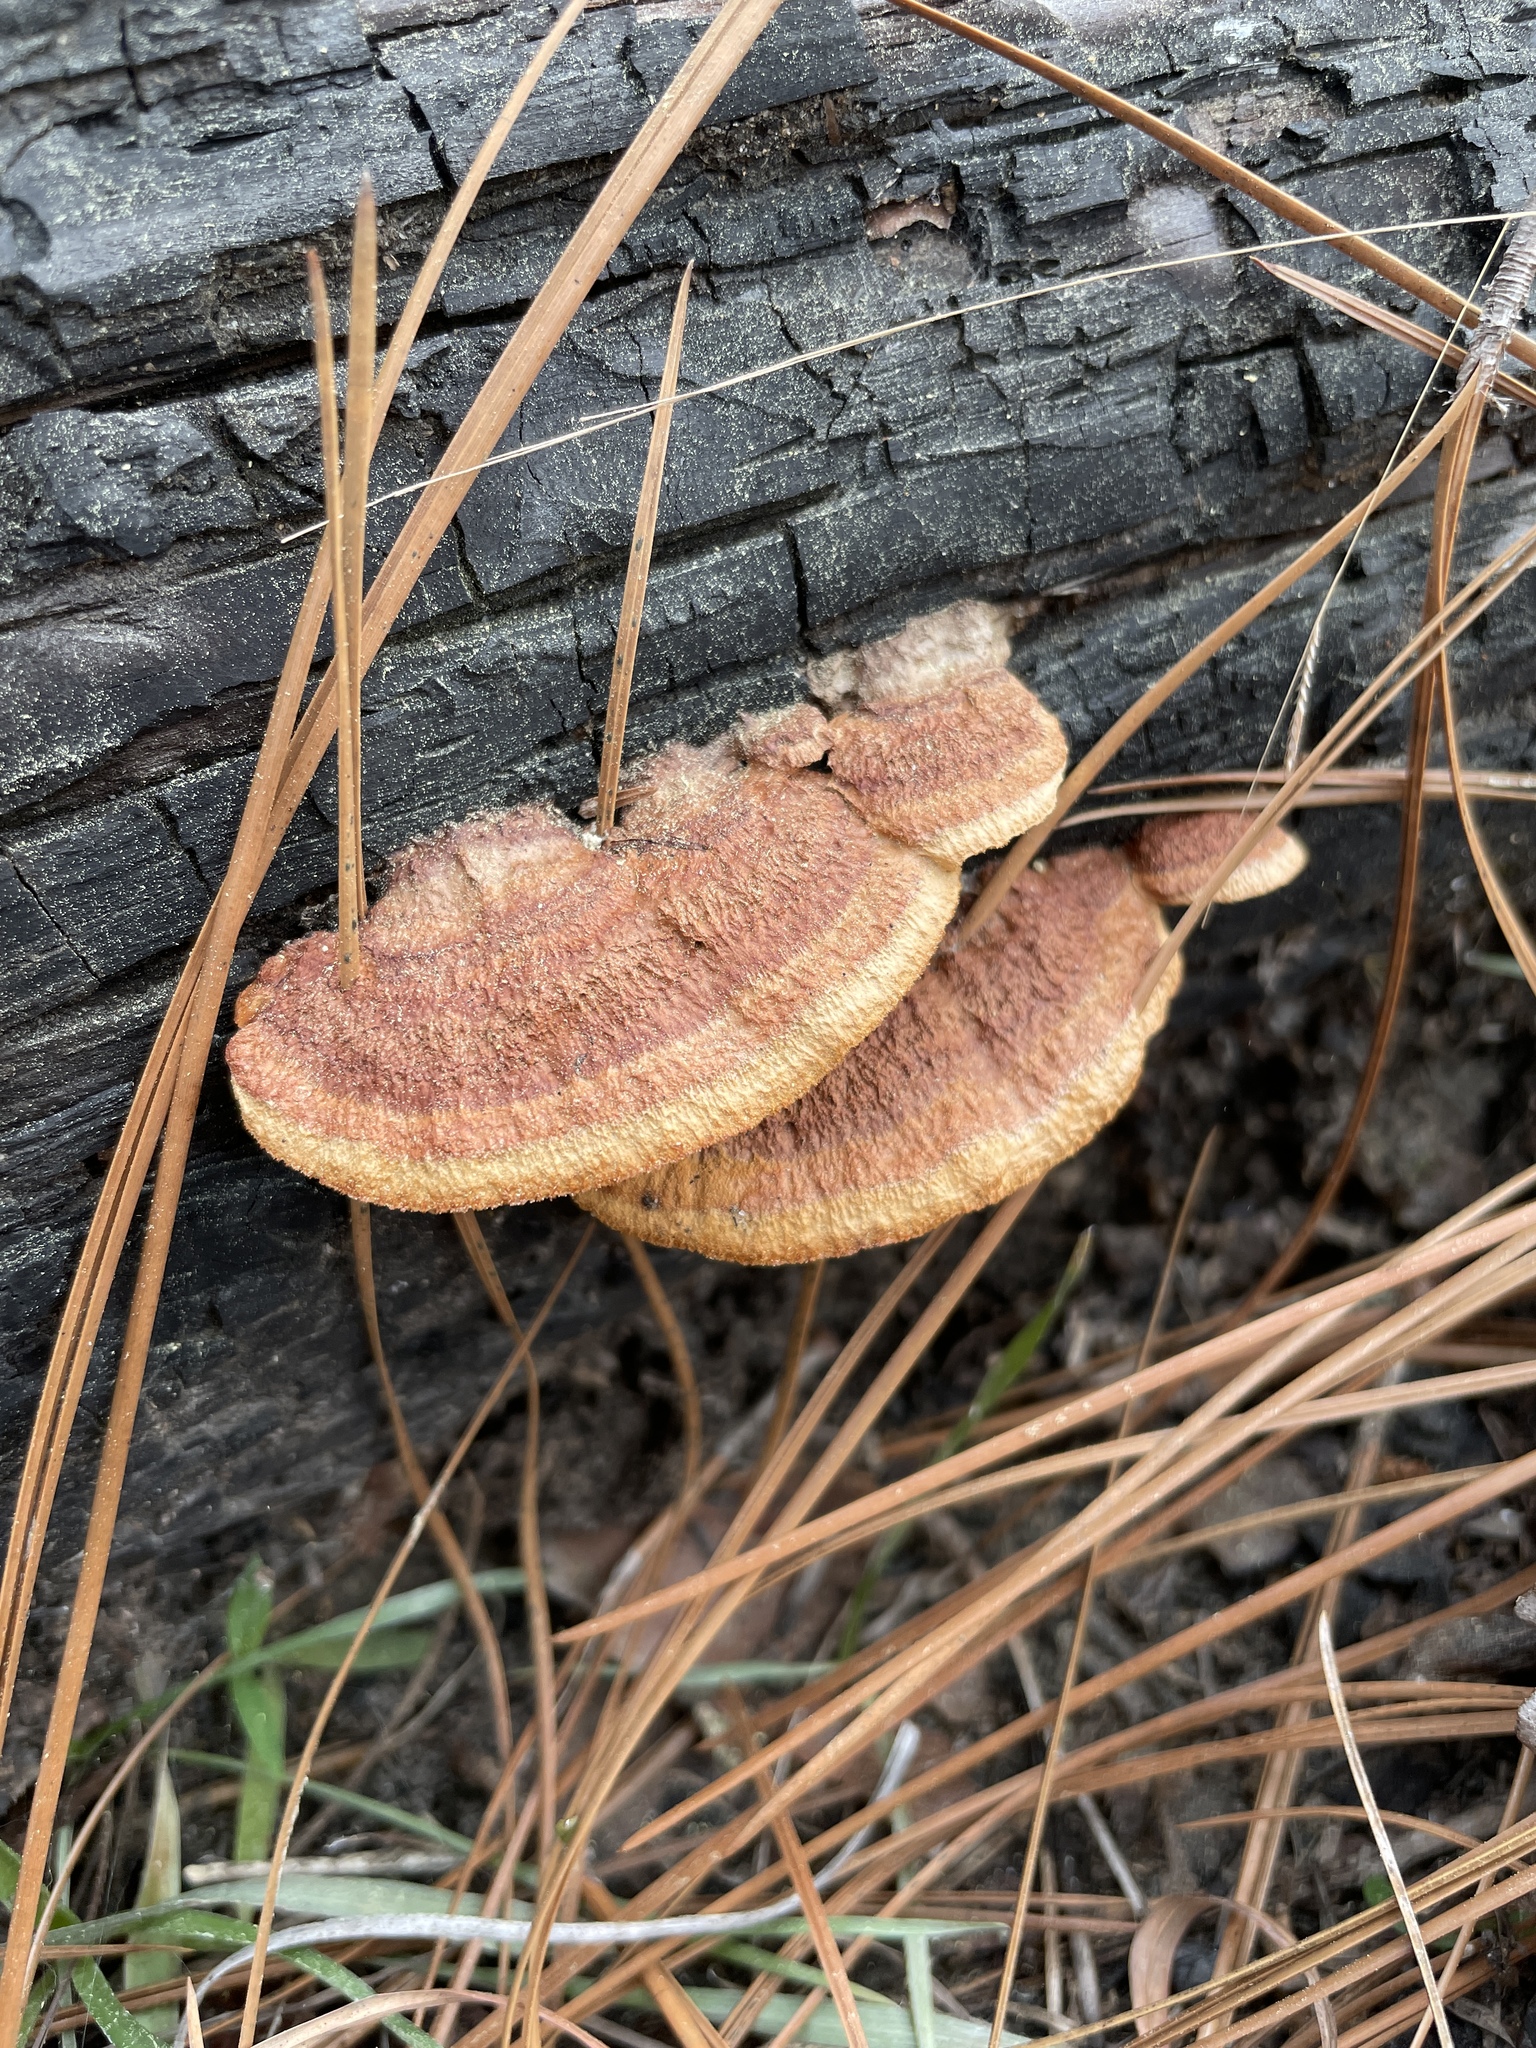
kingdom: Fungi
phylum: Basidiomycota
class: Agaricomycetes
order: Gloeophyllales
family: Gloeophyllaceae
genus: Gloeophyllum
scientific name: Gloeophyllum sepiarium
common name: Conifer mazegill
